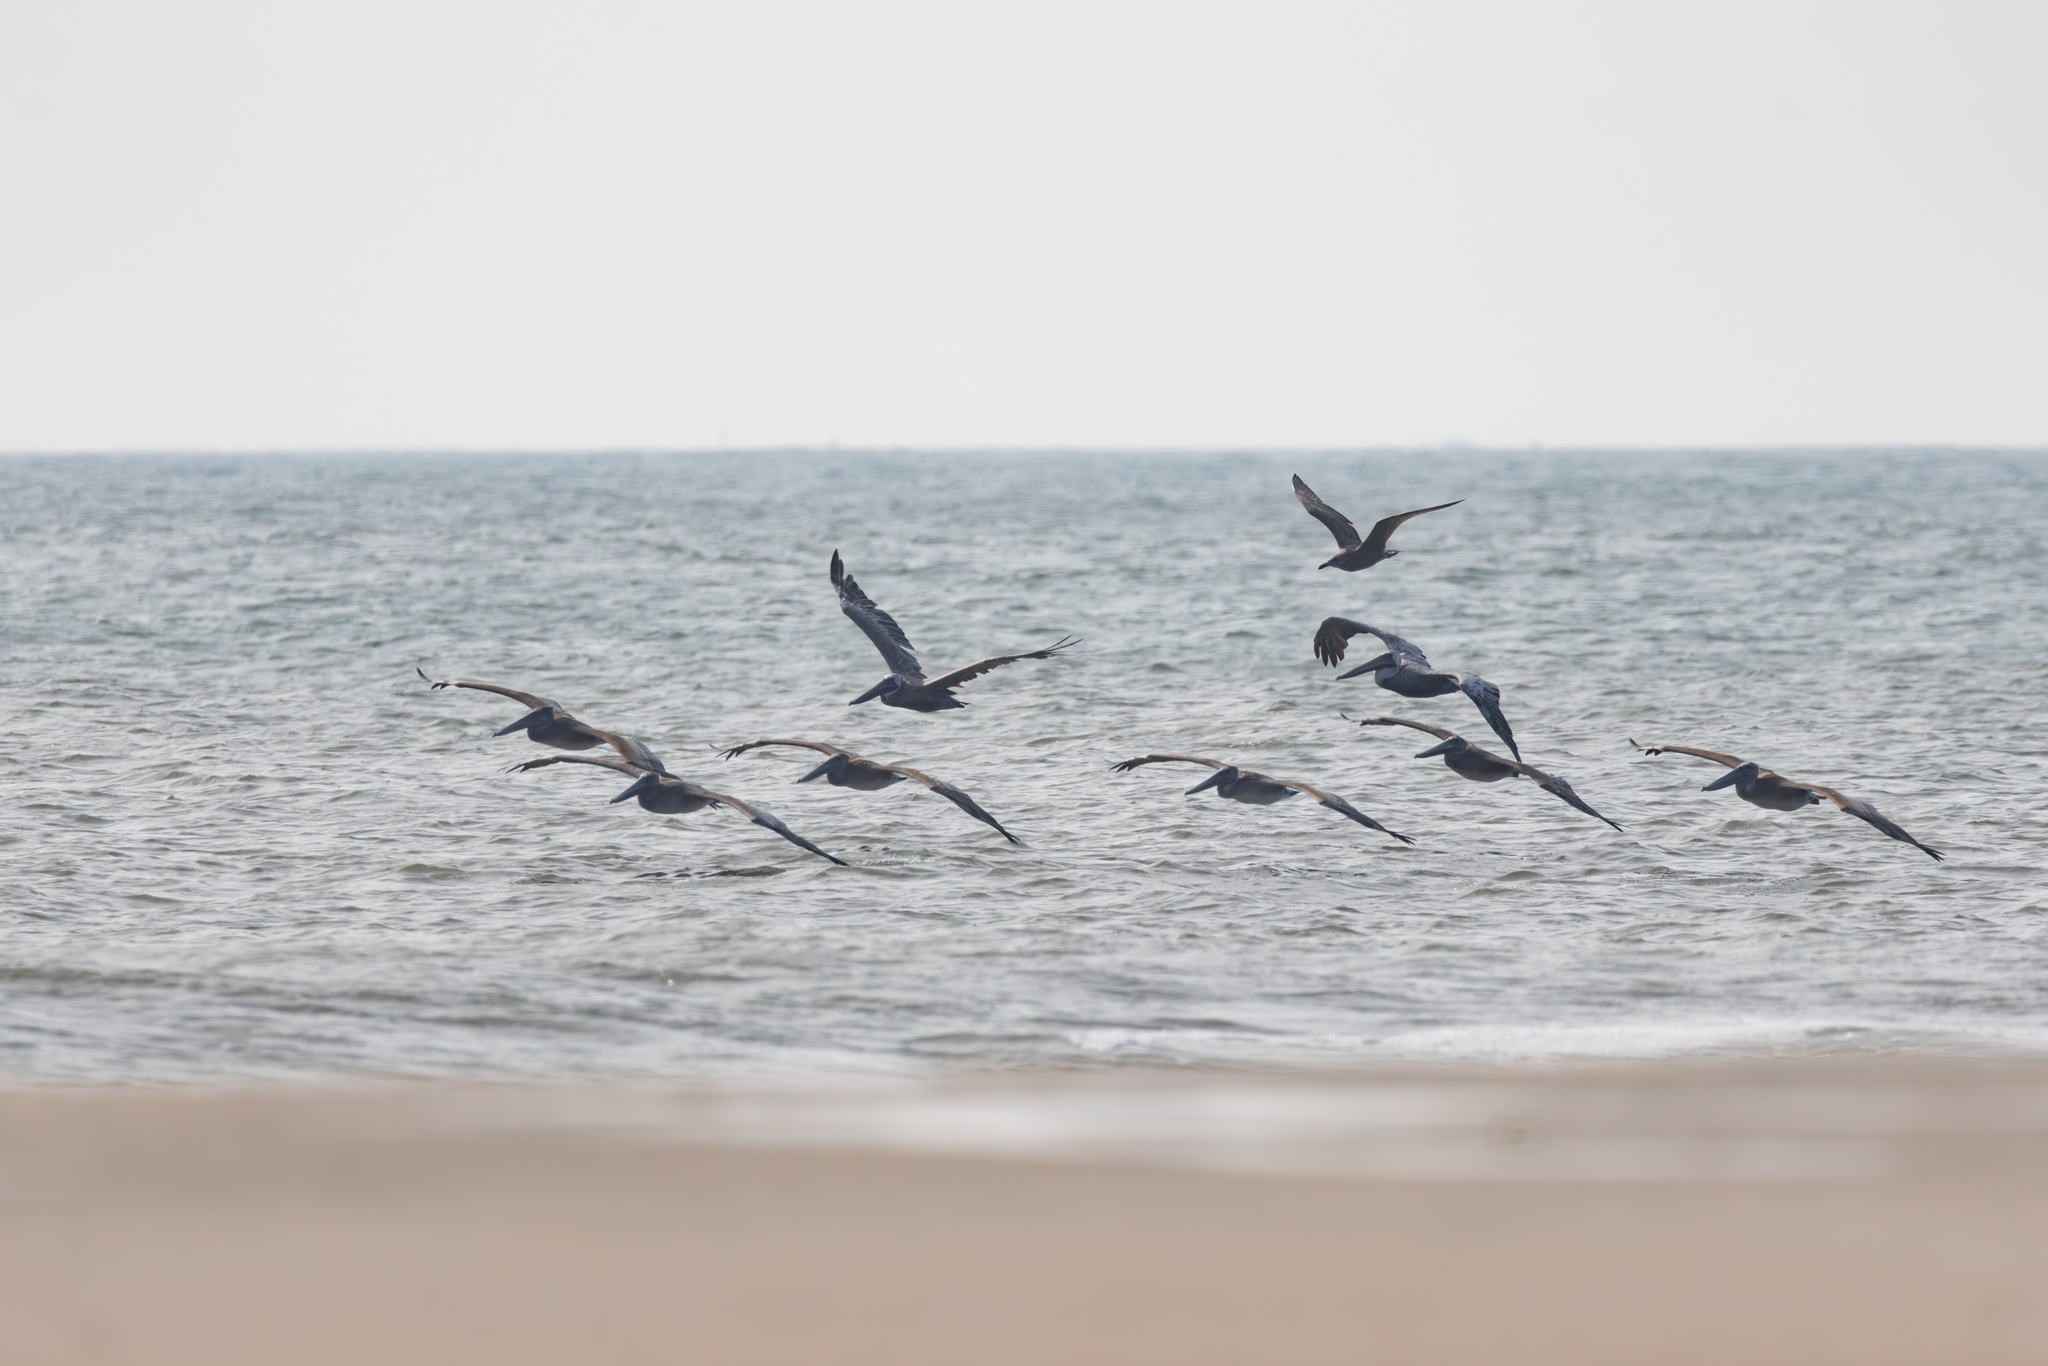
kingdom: Animalia
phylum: Chordata
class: Aves
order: Pelecaniformes
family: Pelecanidae
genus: Pelecanus
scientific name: Pelecanus occidentalis
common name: Brown pelican
